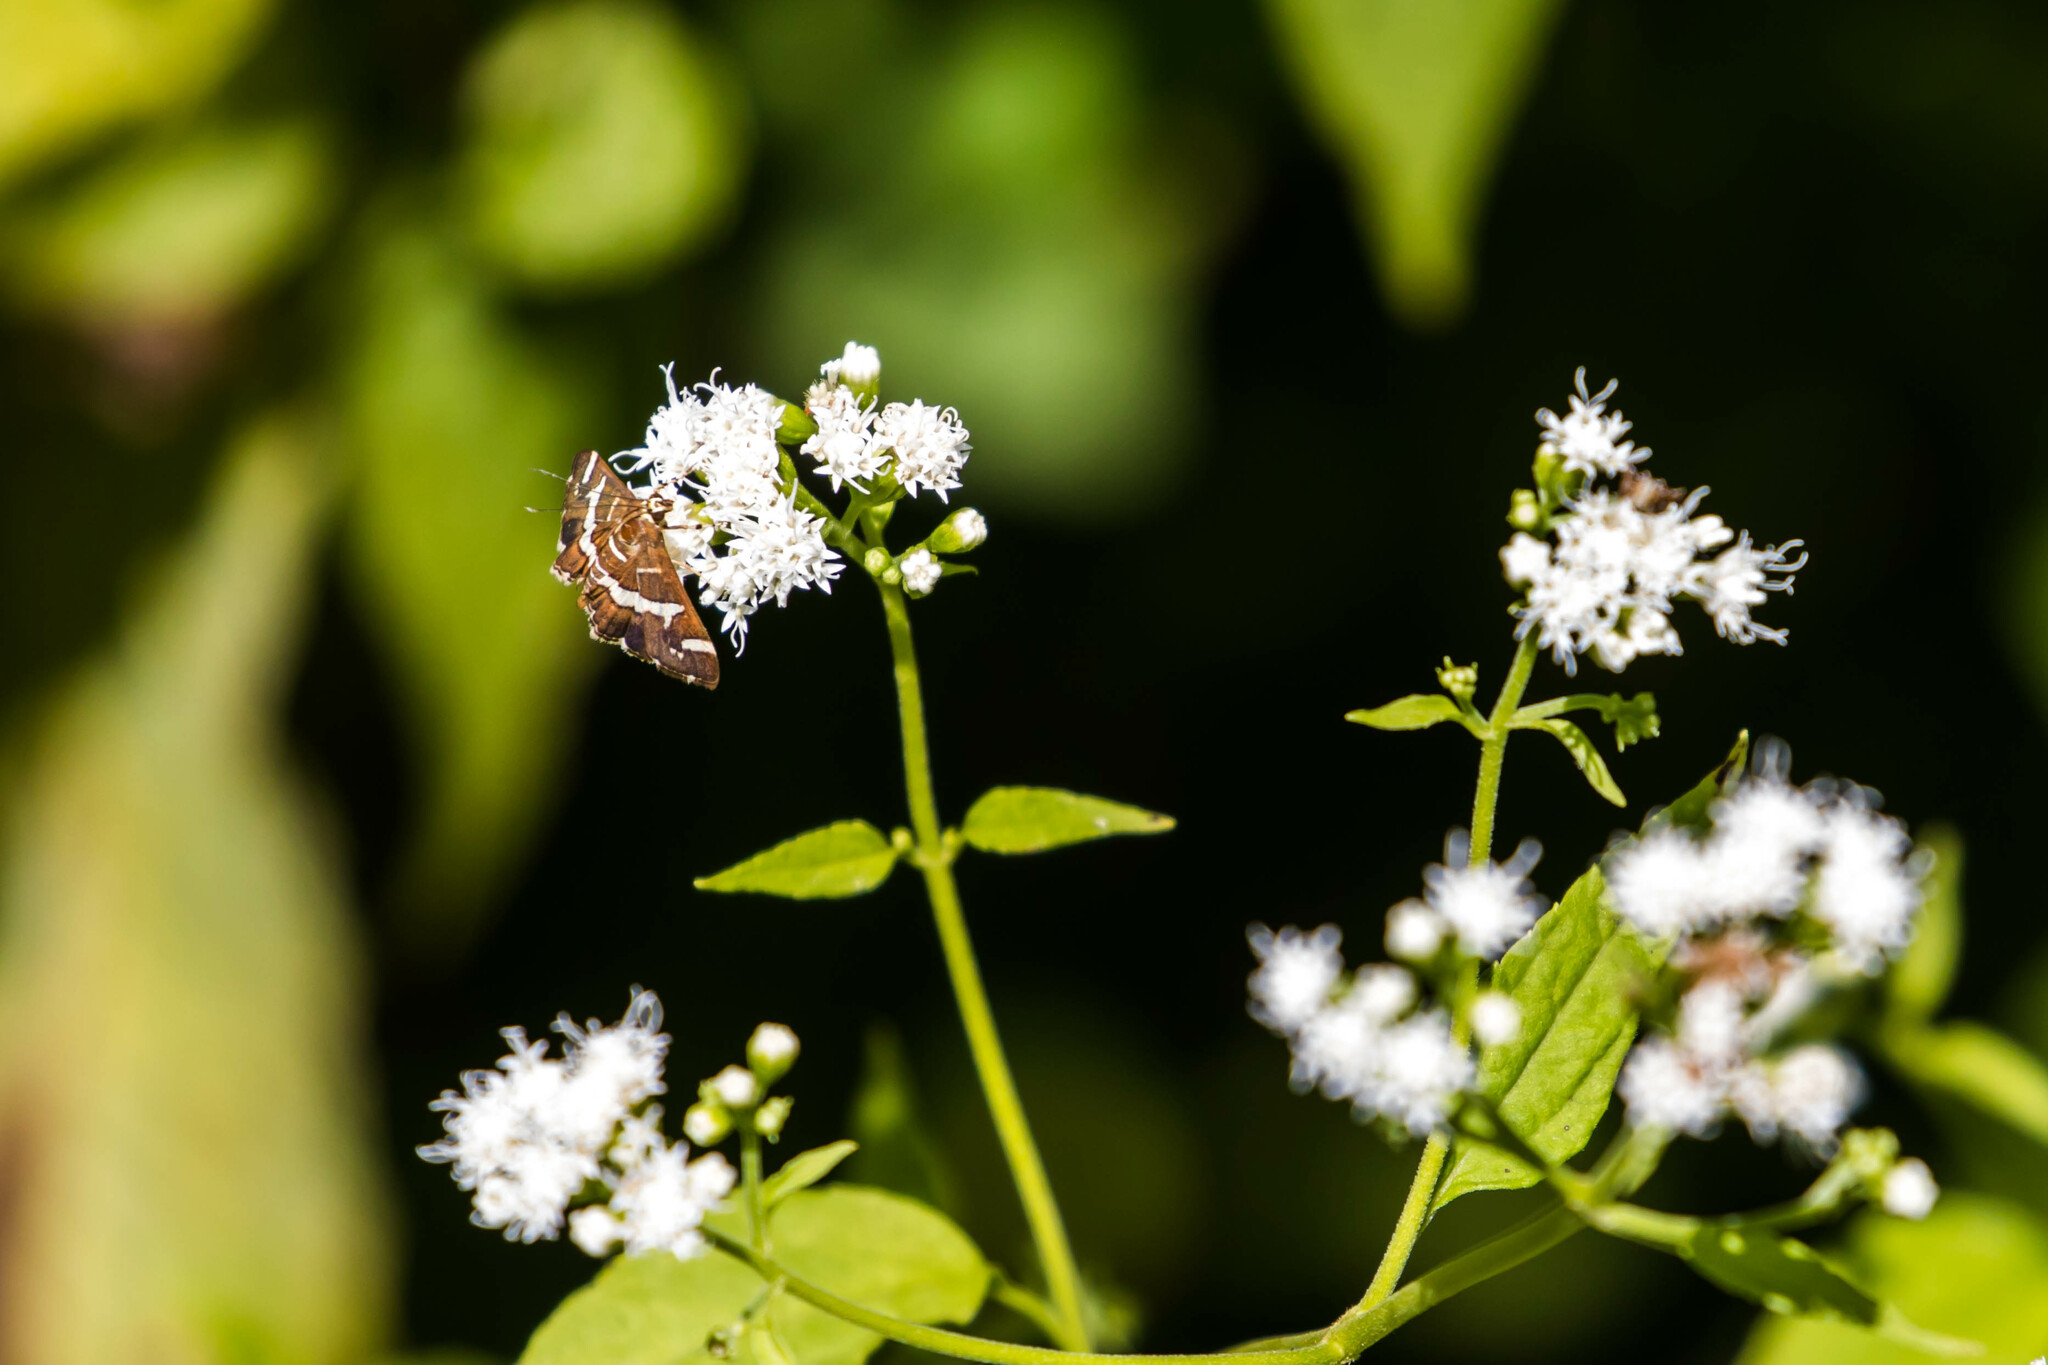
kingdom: Animalia
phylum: Arthropoda
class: Insecta
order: Lepidoptera
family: Crambidae
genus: Spoladea
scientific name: Spoladea recurvalis
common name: Beet webworm moth
